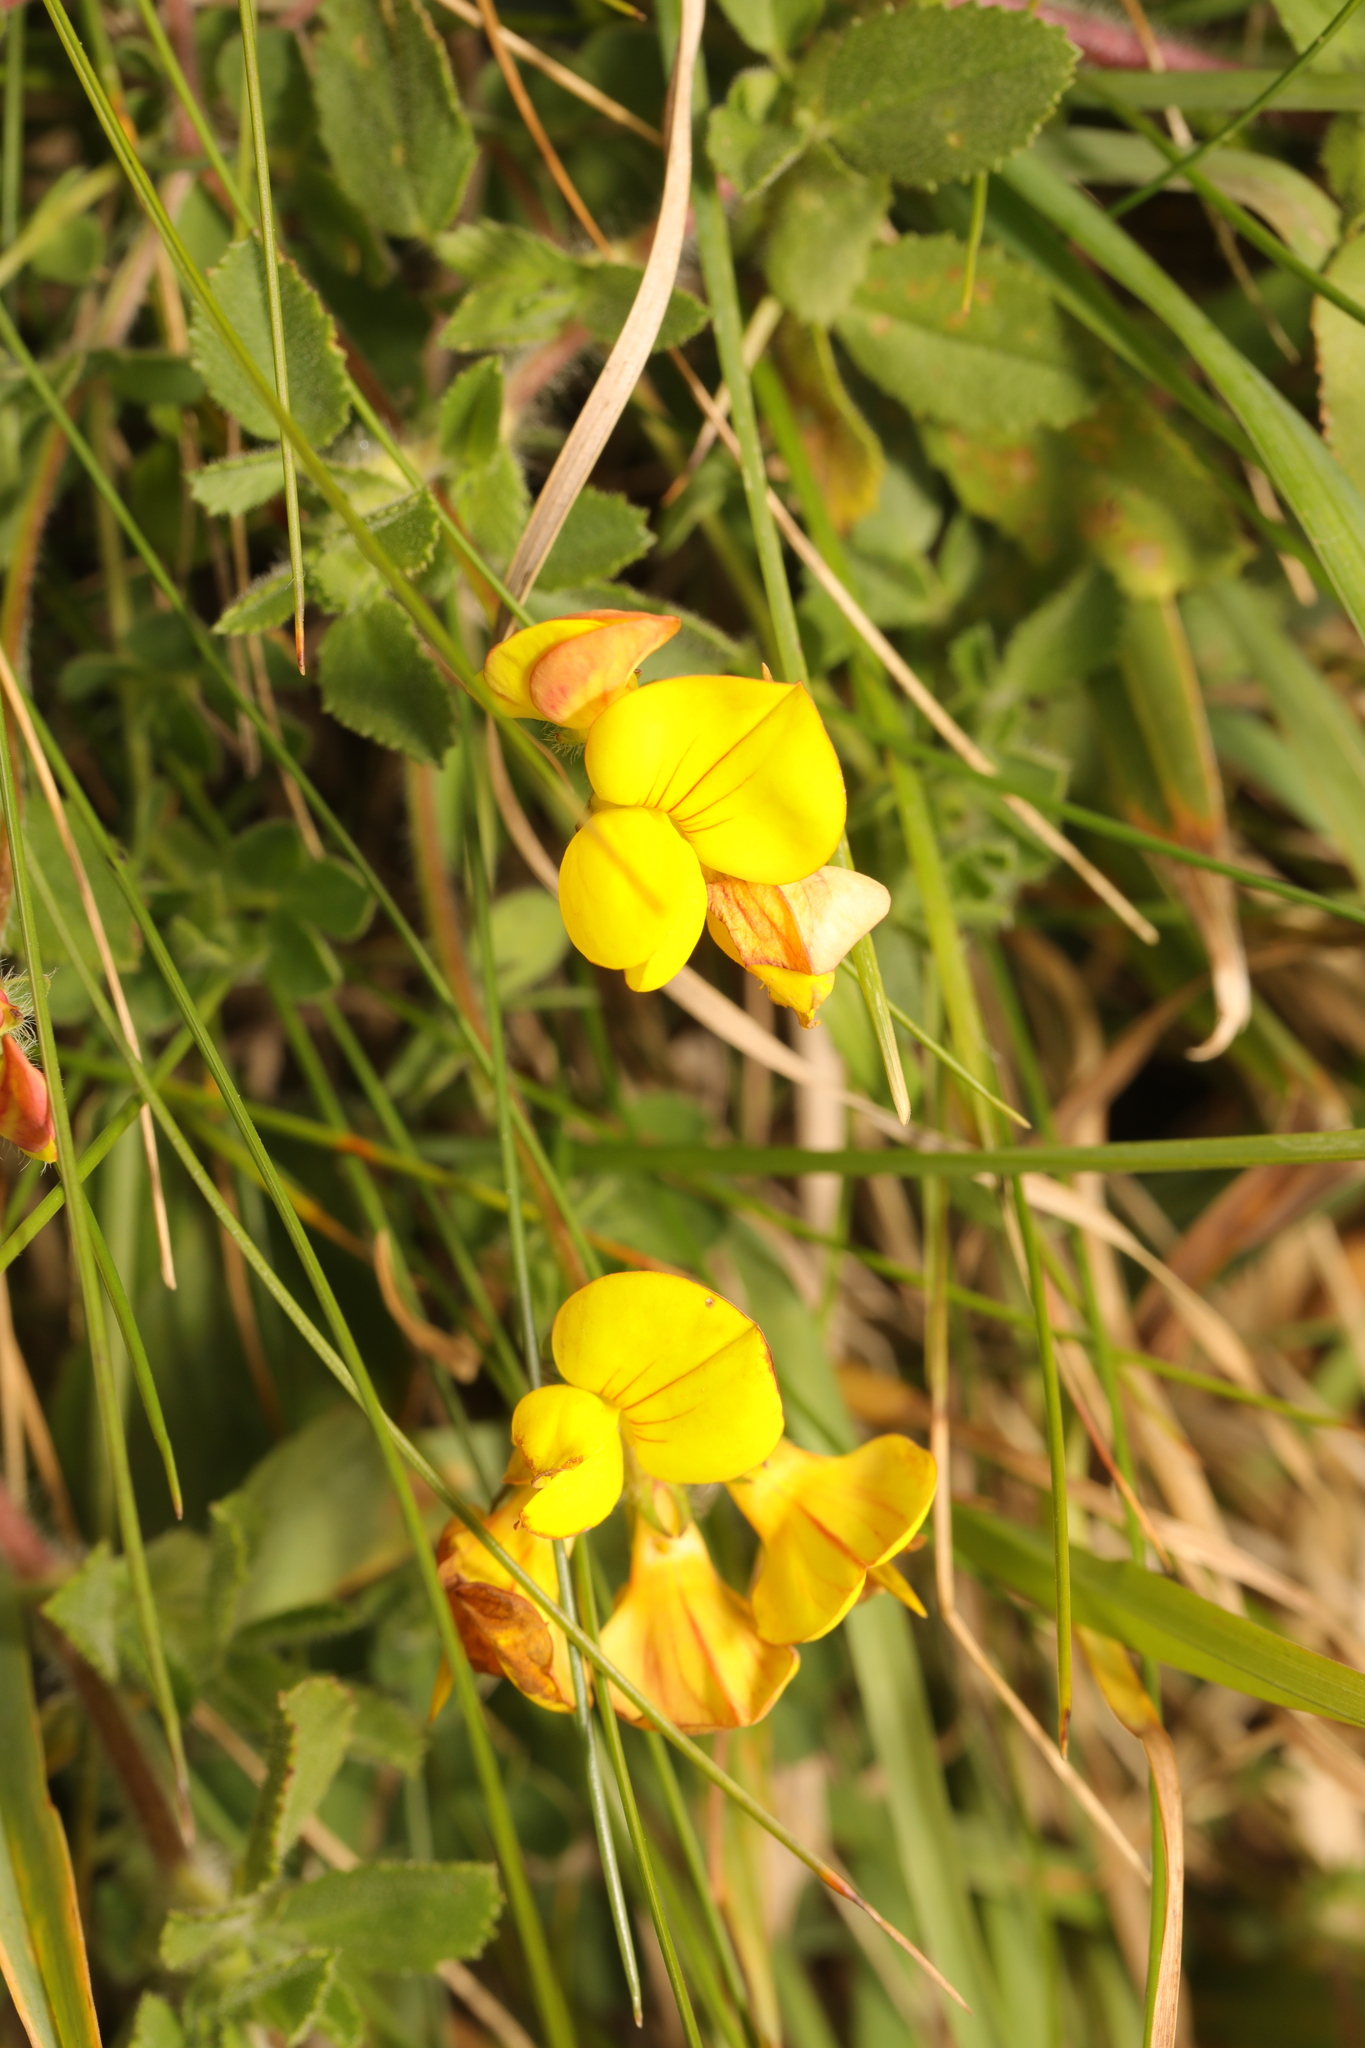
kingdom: Plantae
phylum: Tracheophyta
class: Magnoliopsida
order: Fabales
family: Fabaceae
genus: Lotus
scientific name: Lotus corniculatus
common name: Common bird's-foot-trefoil
